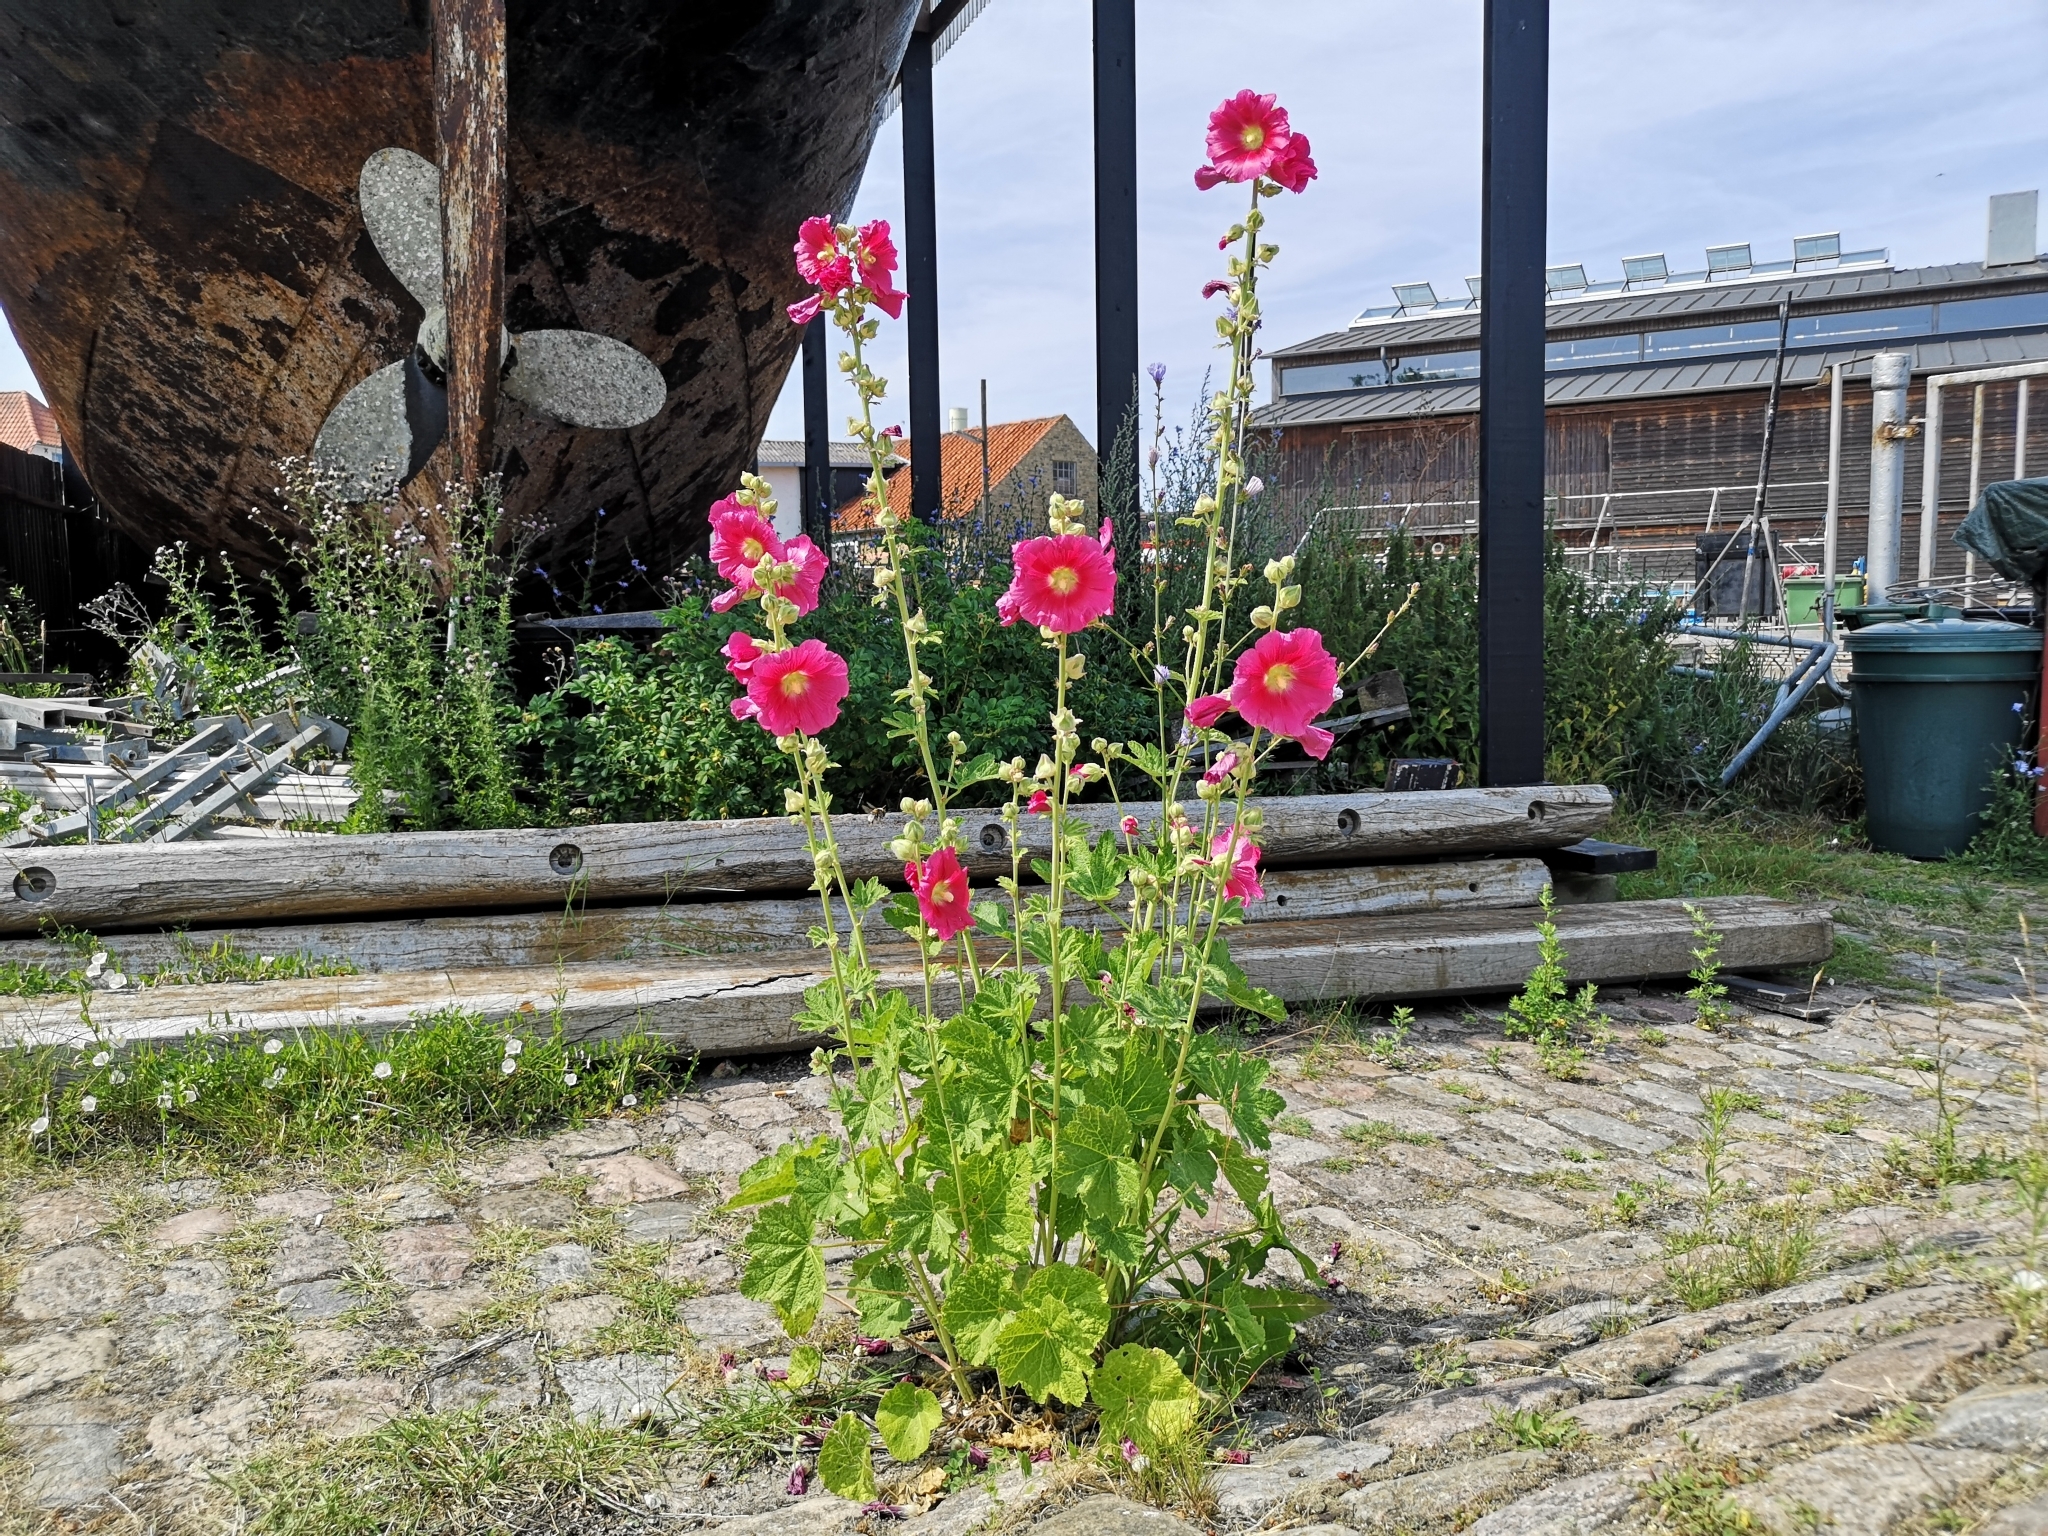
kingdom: Plantae
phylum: Tracheophyta
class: Magnoliopsida
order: Malvales
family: Malvaceae
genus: Alcea
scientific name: Alcea rosea
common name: Hollyhock
